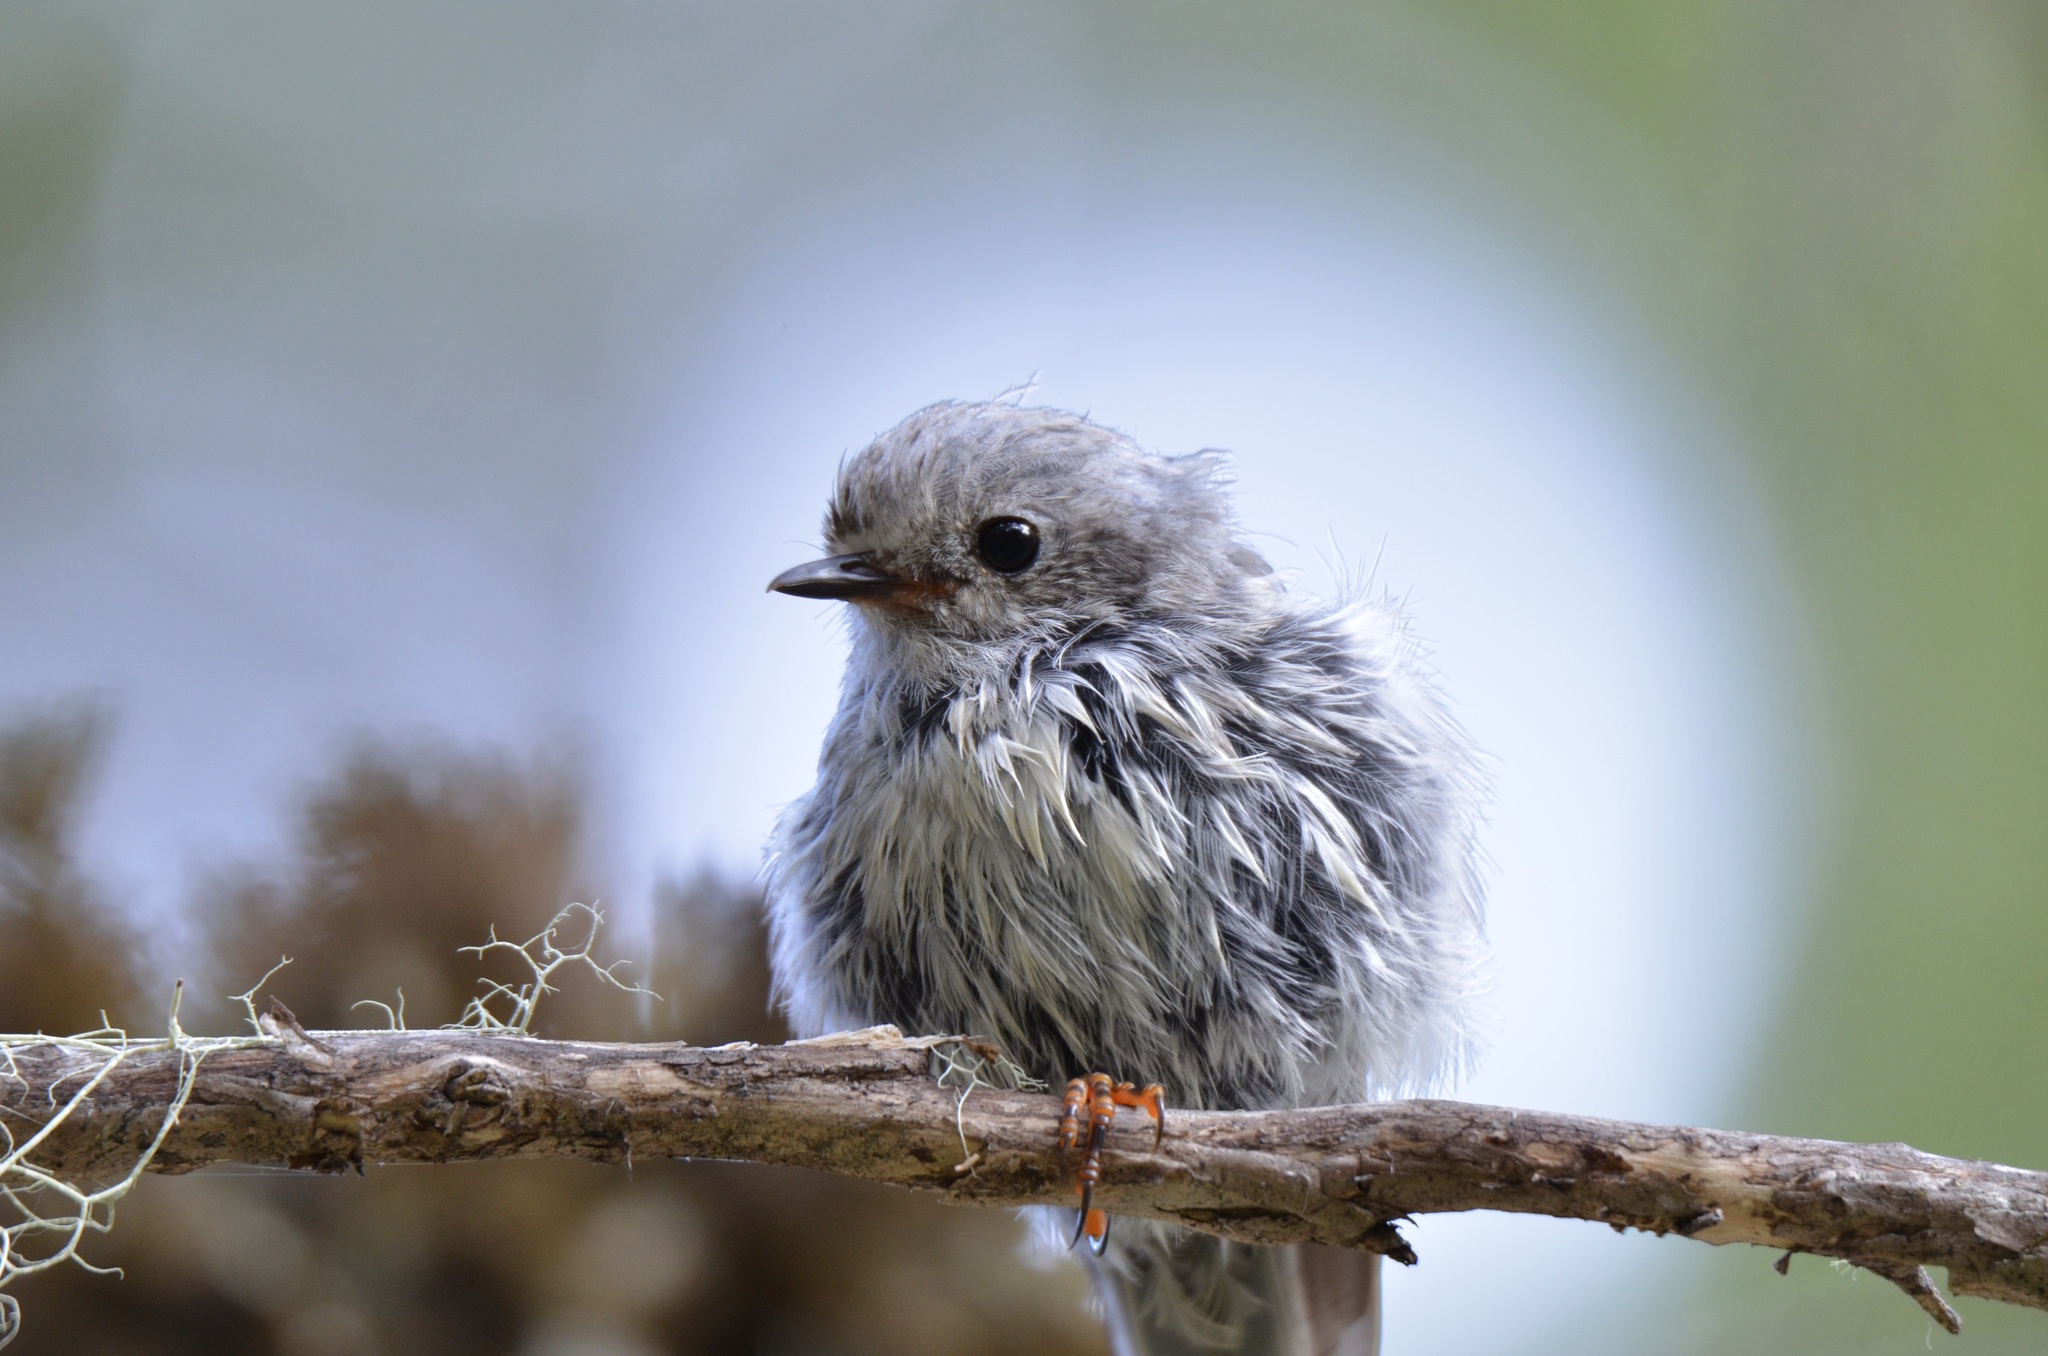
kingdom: Animalia
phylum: Chordata
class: Aves
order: Passeriformes
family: Petroicidae
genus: Petroica
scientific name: Petroica macrocephala
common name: Tomtit
